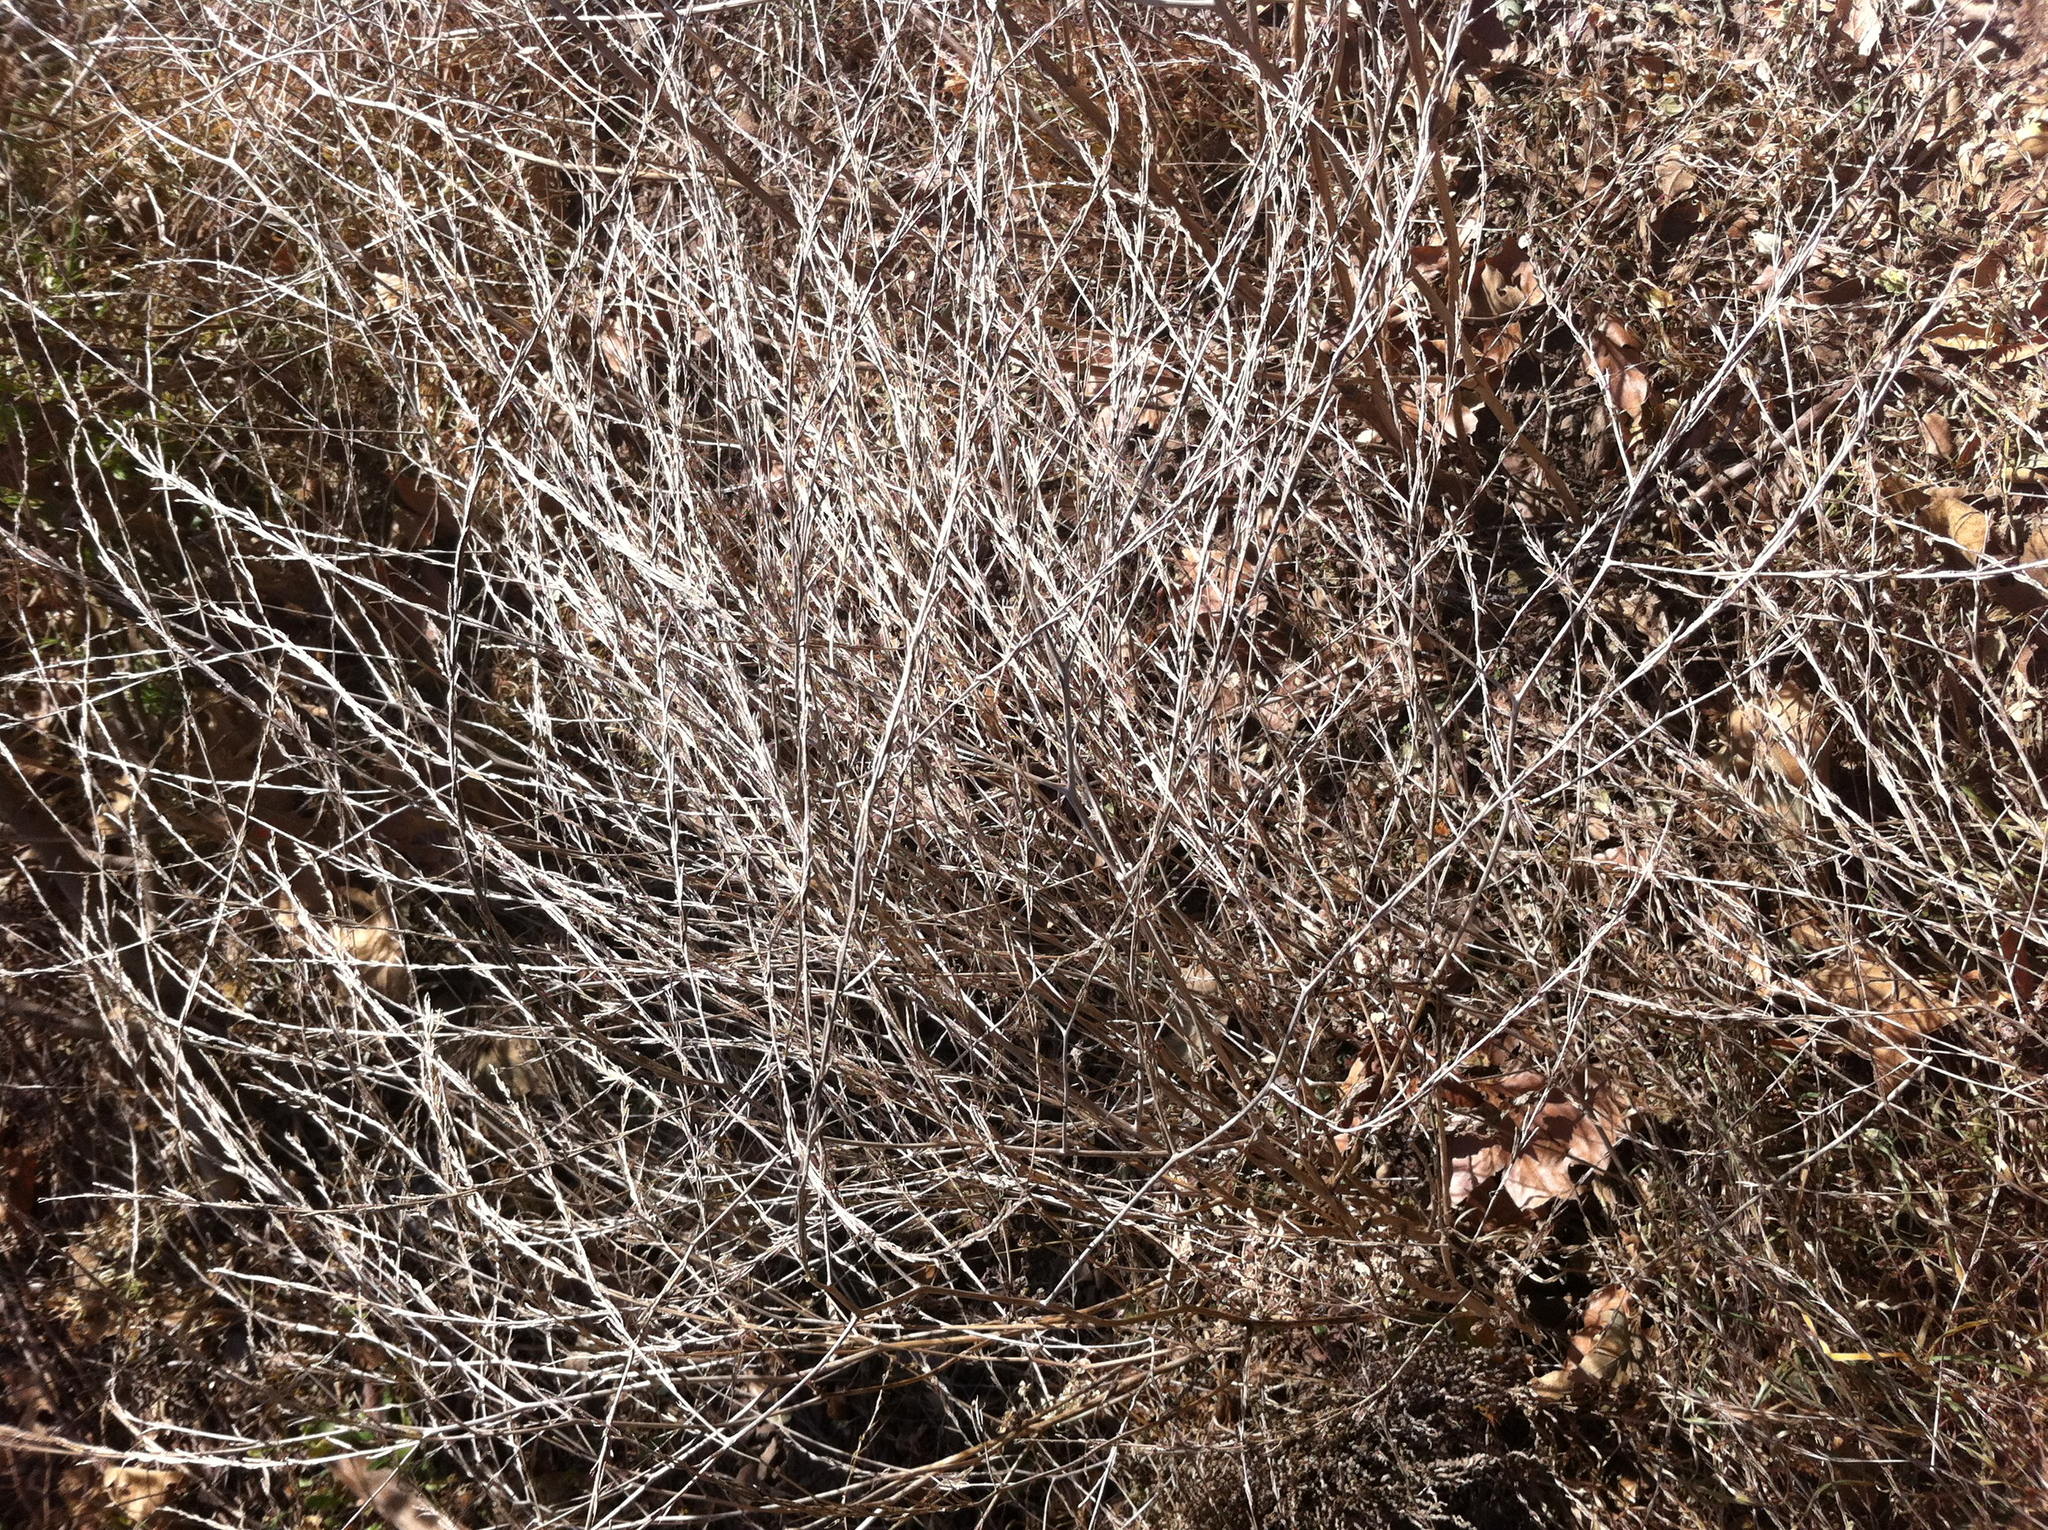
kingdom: Plantae
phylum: Tracheophyta
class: Magnoliopsida
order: Brassicales
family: Brassicaceae
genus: Hirschfeldia
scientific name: Hirschfeldia incana
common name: Hoary mustard
